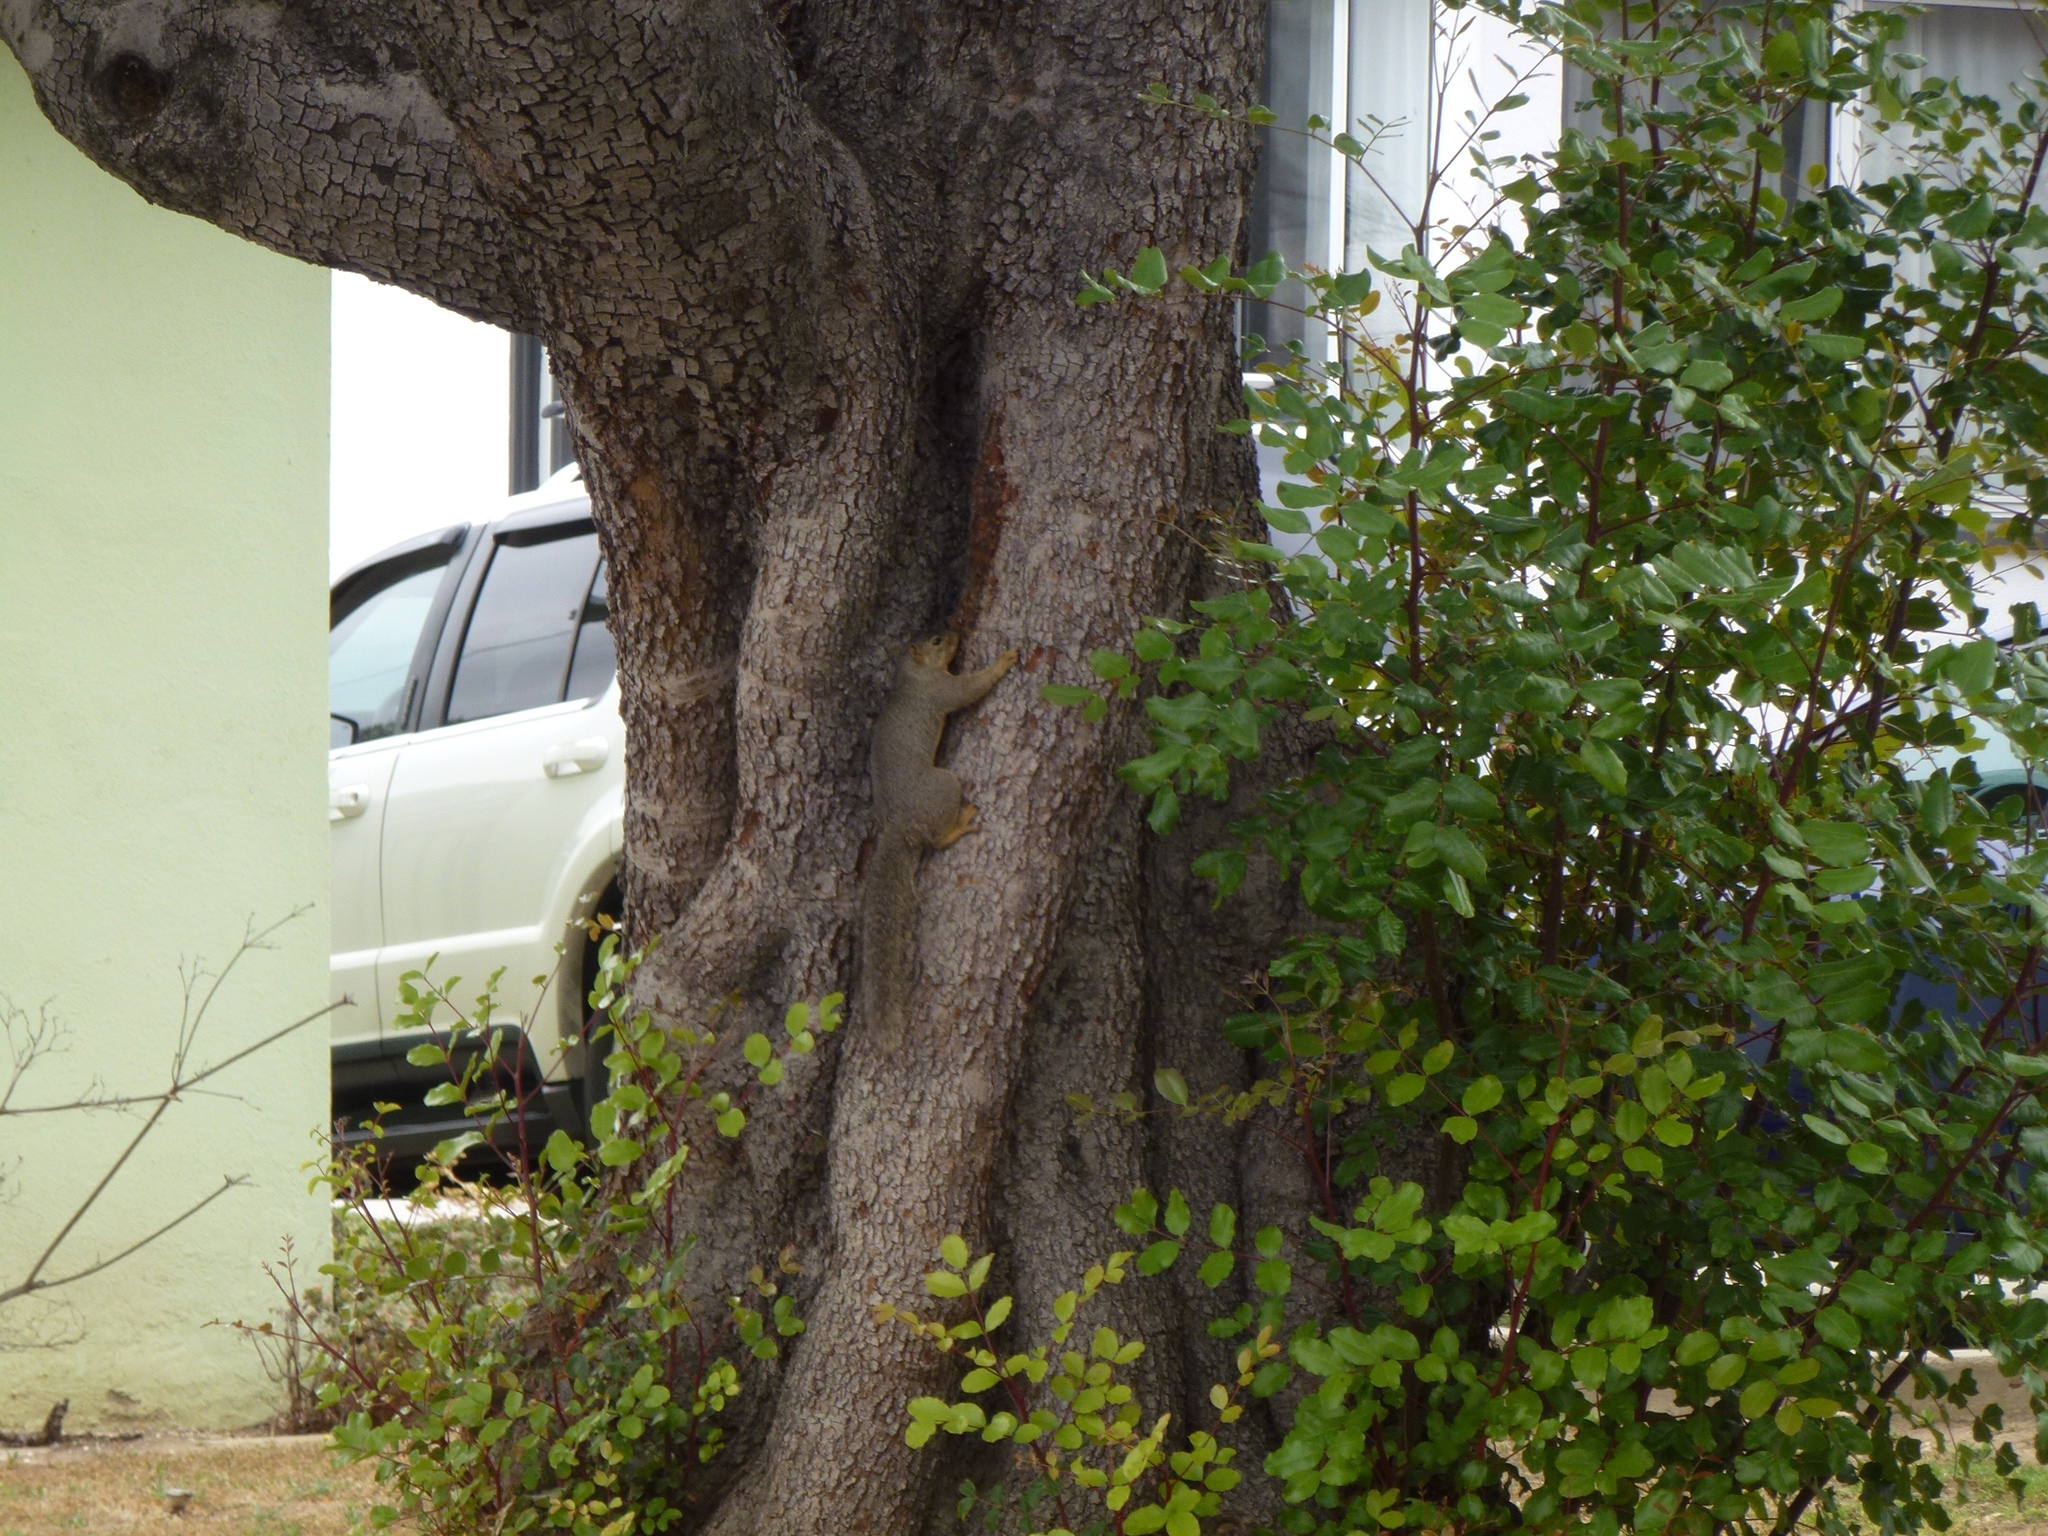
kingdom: Animalia
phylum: Chordata
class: Mammalia
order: Rodentia
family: Sciuridae
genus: Sciurus
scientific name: Sciurus niger
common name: Fox squirrel
